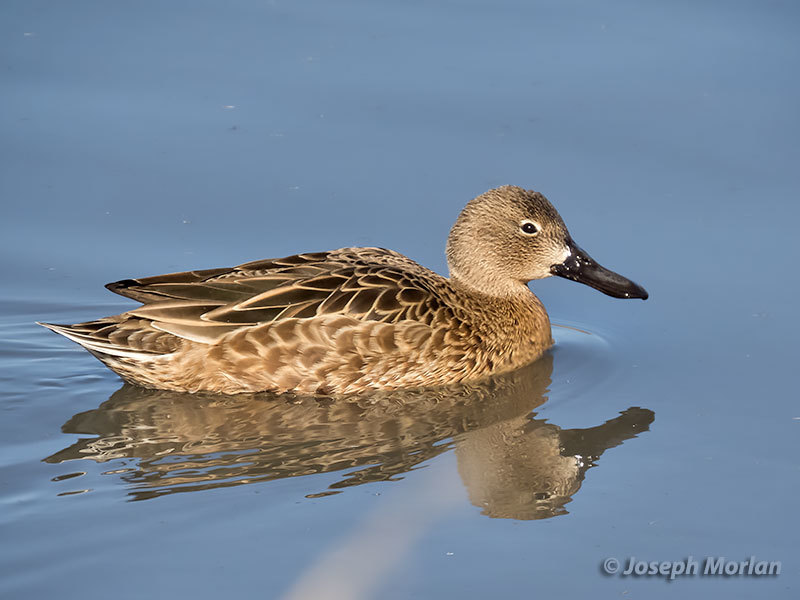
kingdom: Animalia
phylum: Chordata
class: Aves
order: Anseriformes
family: Anatidae
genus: Spatula
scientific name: Spatula cyanoptera
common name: Cinnamon teal
